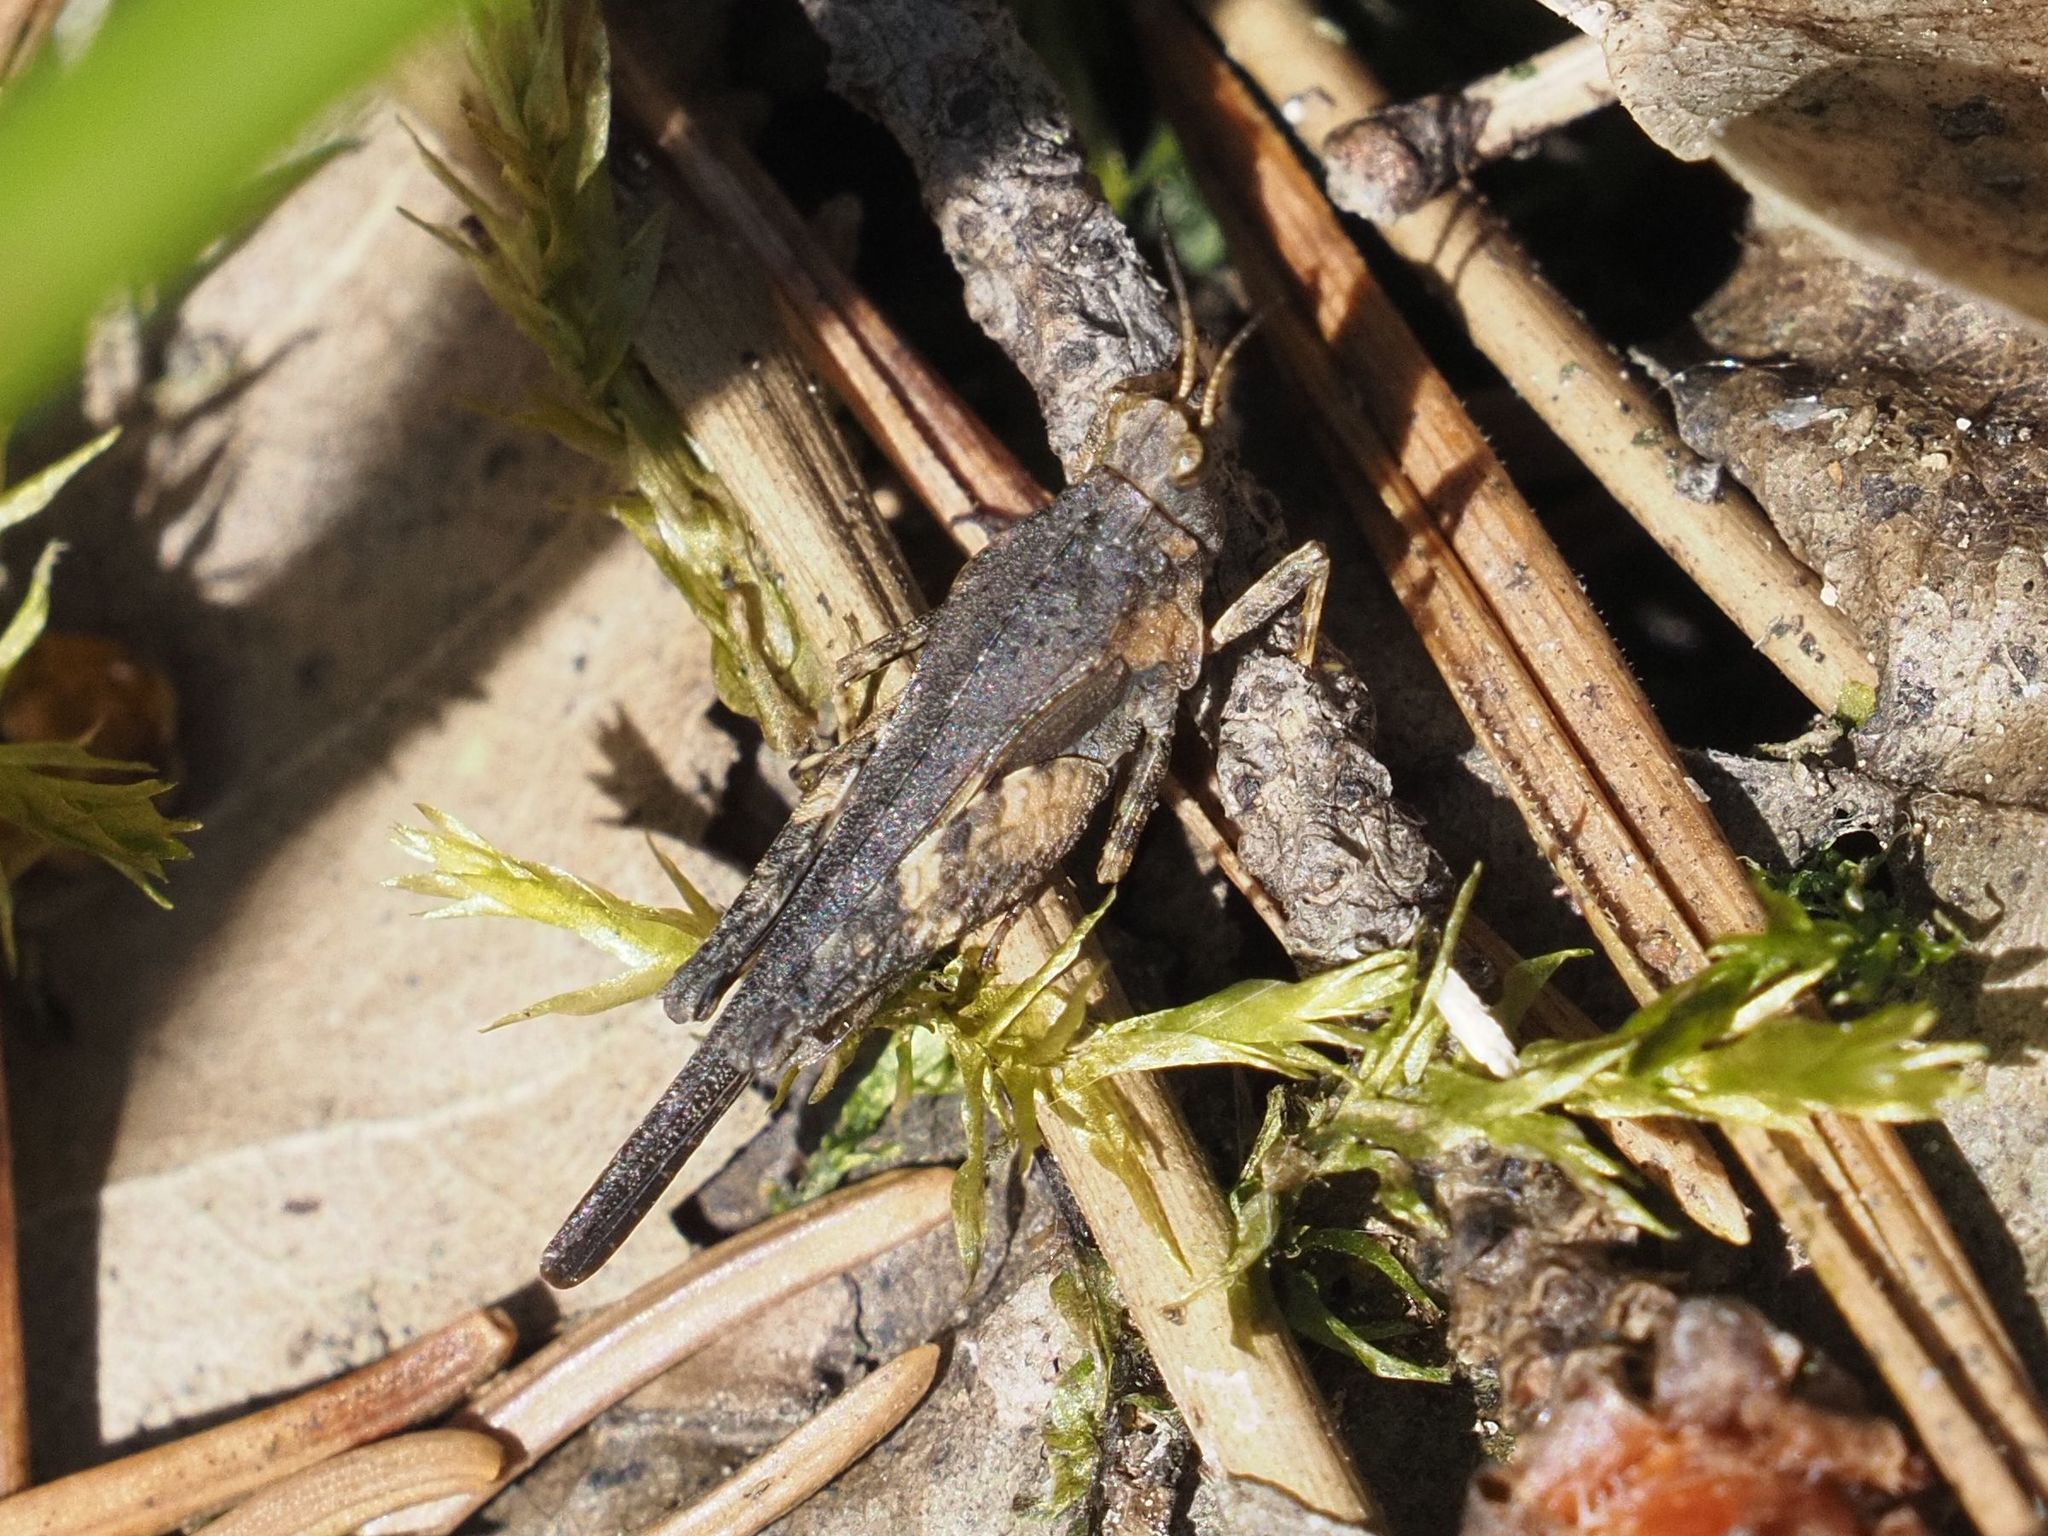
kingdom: Animalia
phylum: Arthropoda
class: Insecta
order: Orthoptera
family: Tetrigidae
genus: Tetrix
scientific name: Tetrix subulata
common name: Slender ground-hopper
